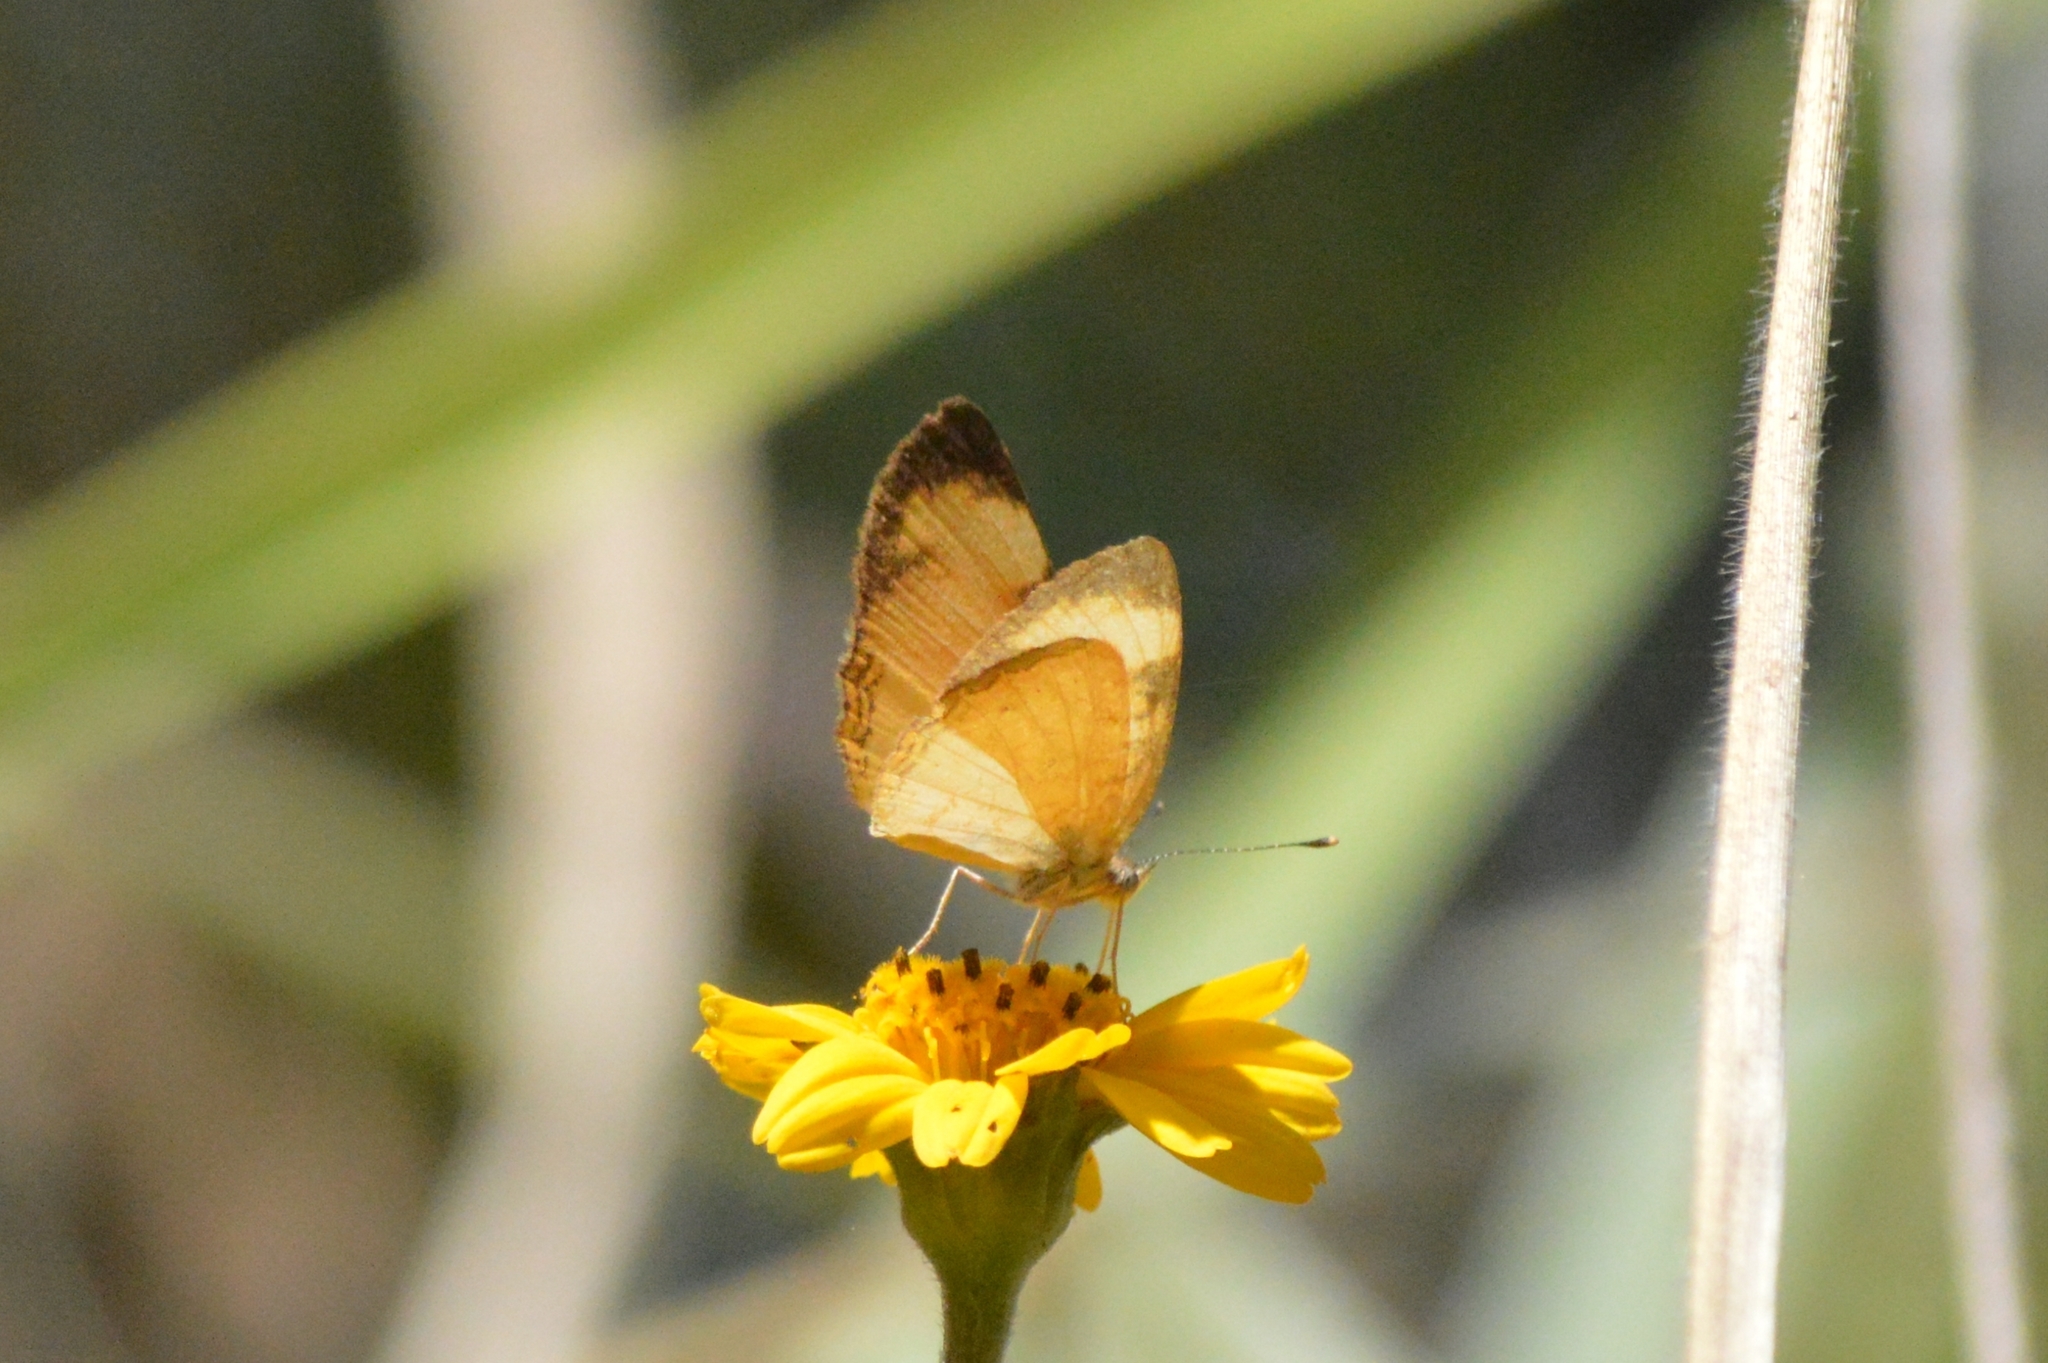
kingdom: Animalia
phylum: Arthropoda
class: Insecta
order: Lepidoptera
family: Nymphalidae
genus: Tegosa
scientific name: Tegosa claudina
